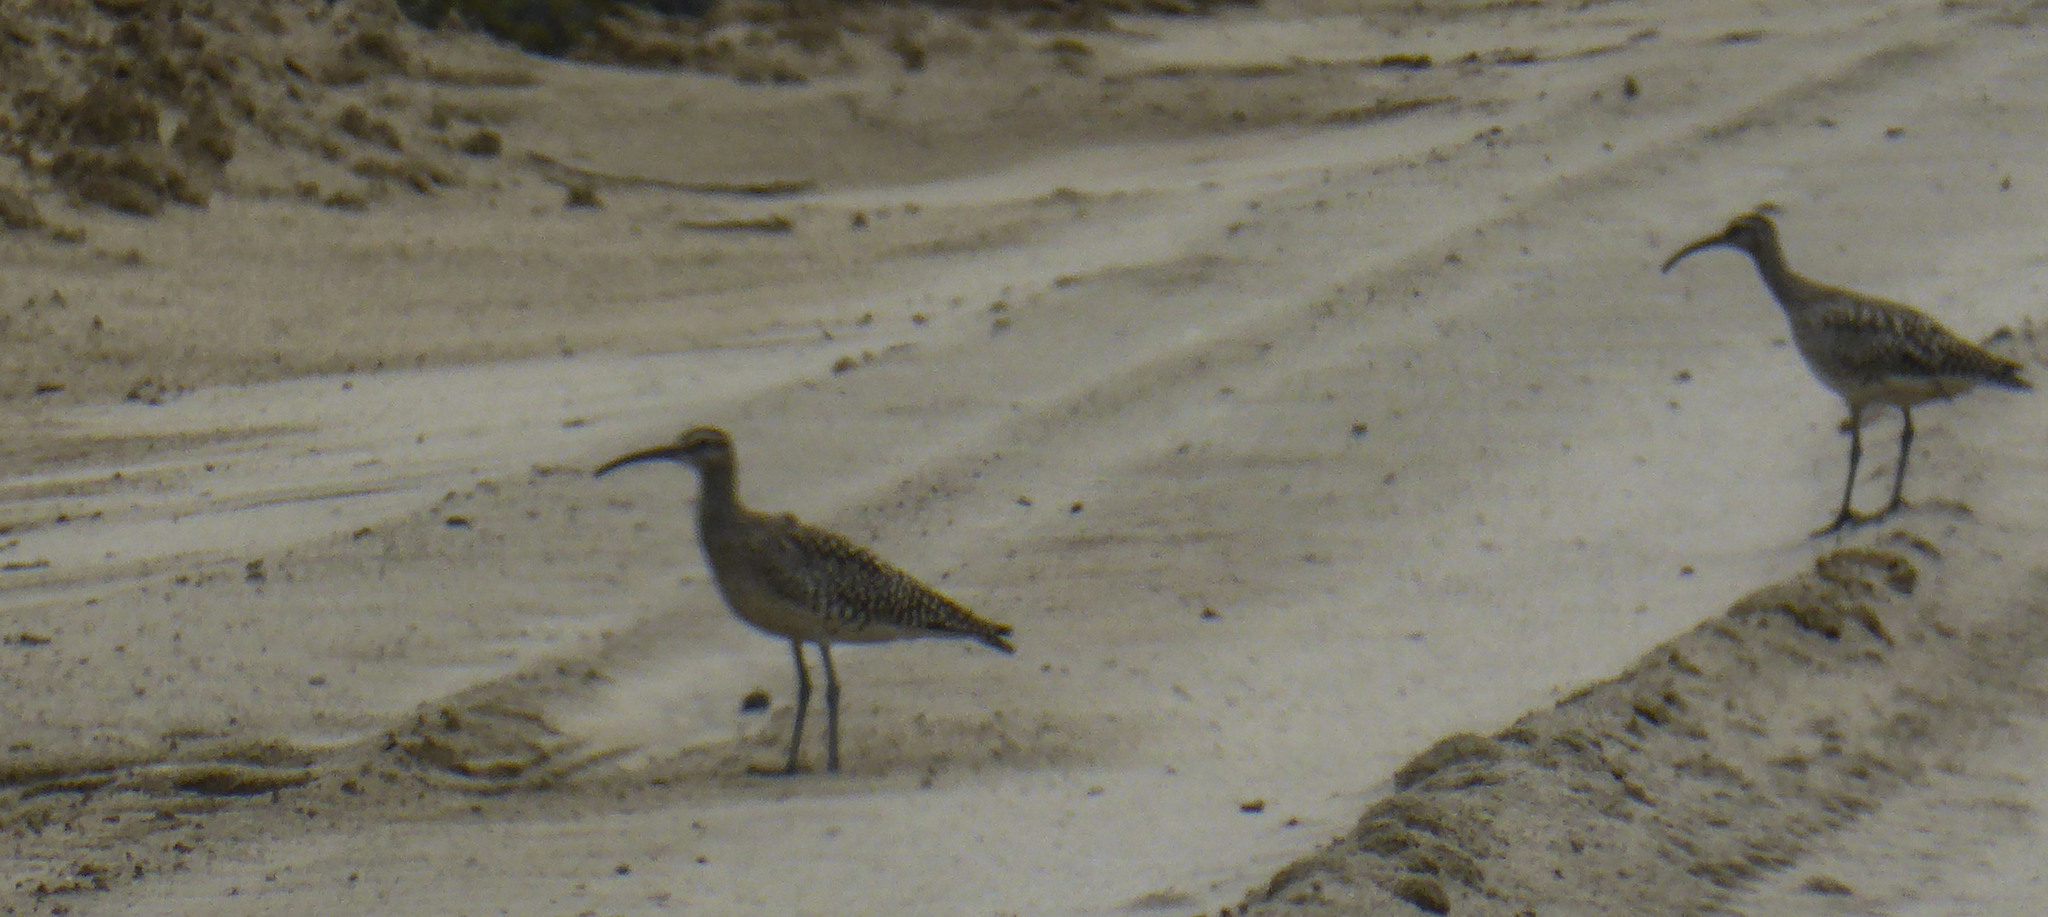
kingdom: Animalia
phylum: Chordata
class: Aves
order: Charadriiformes
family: Scolopacidae
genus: Numenius
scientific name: Numenius phaeopus
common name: Whimbrel
